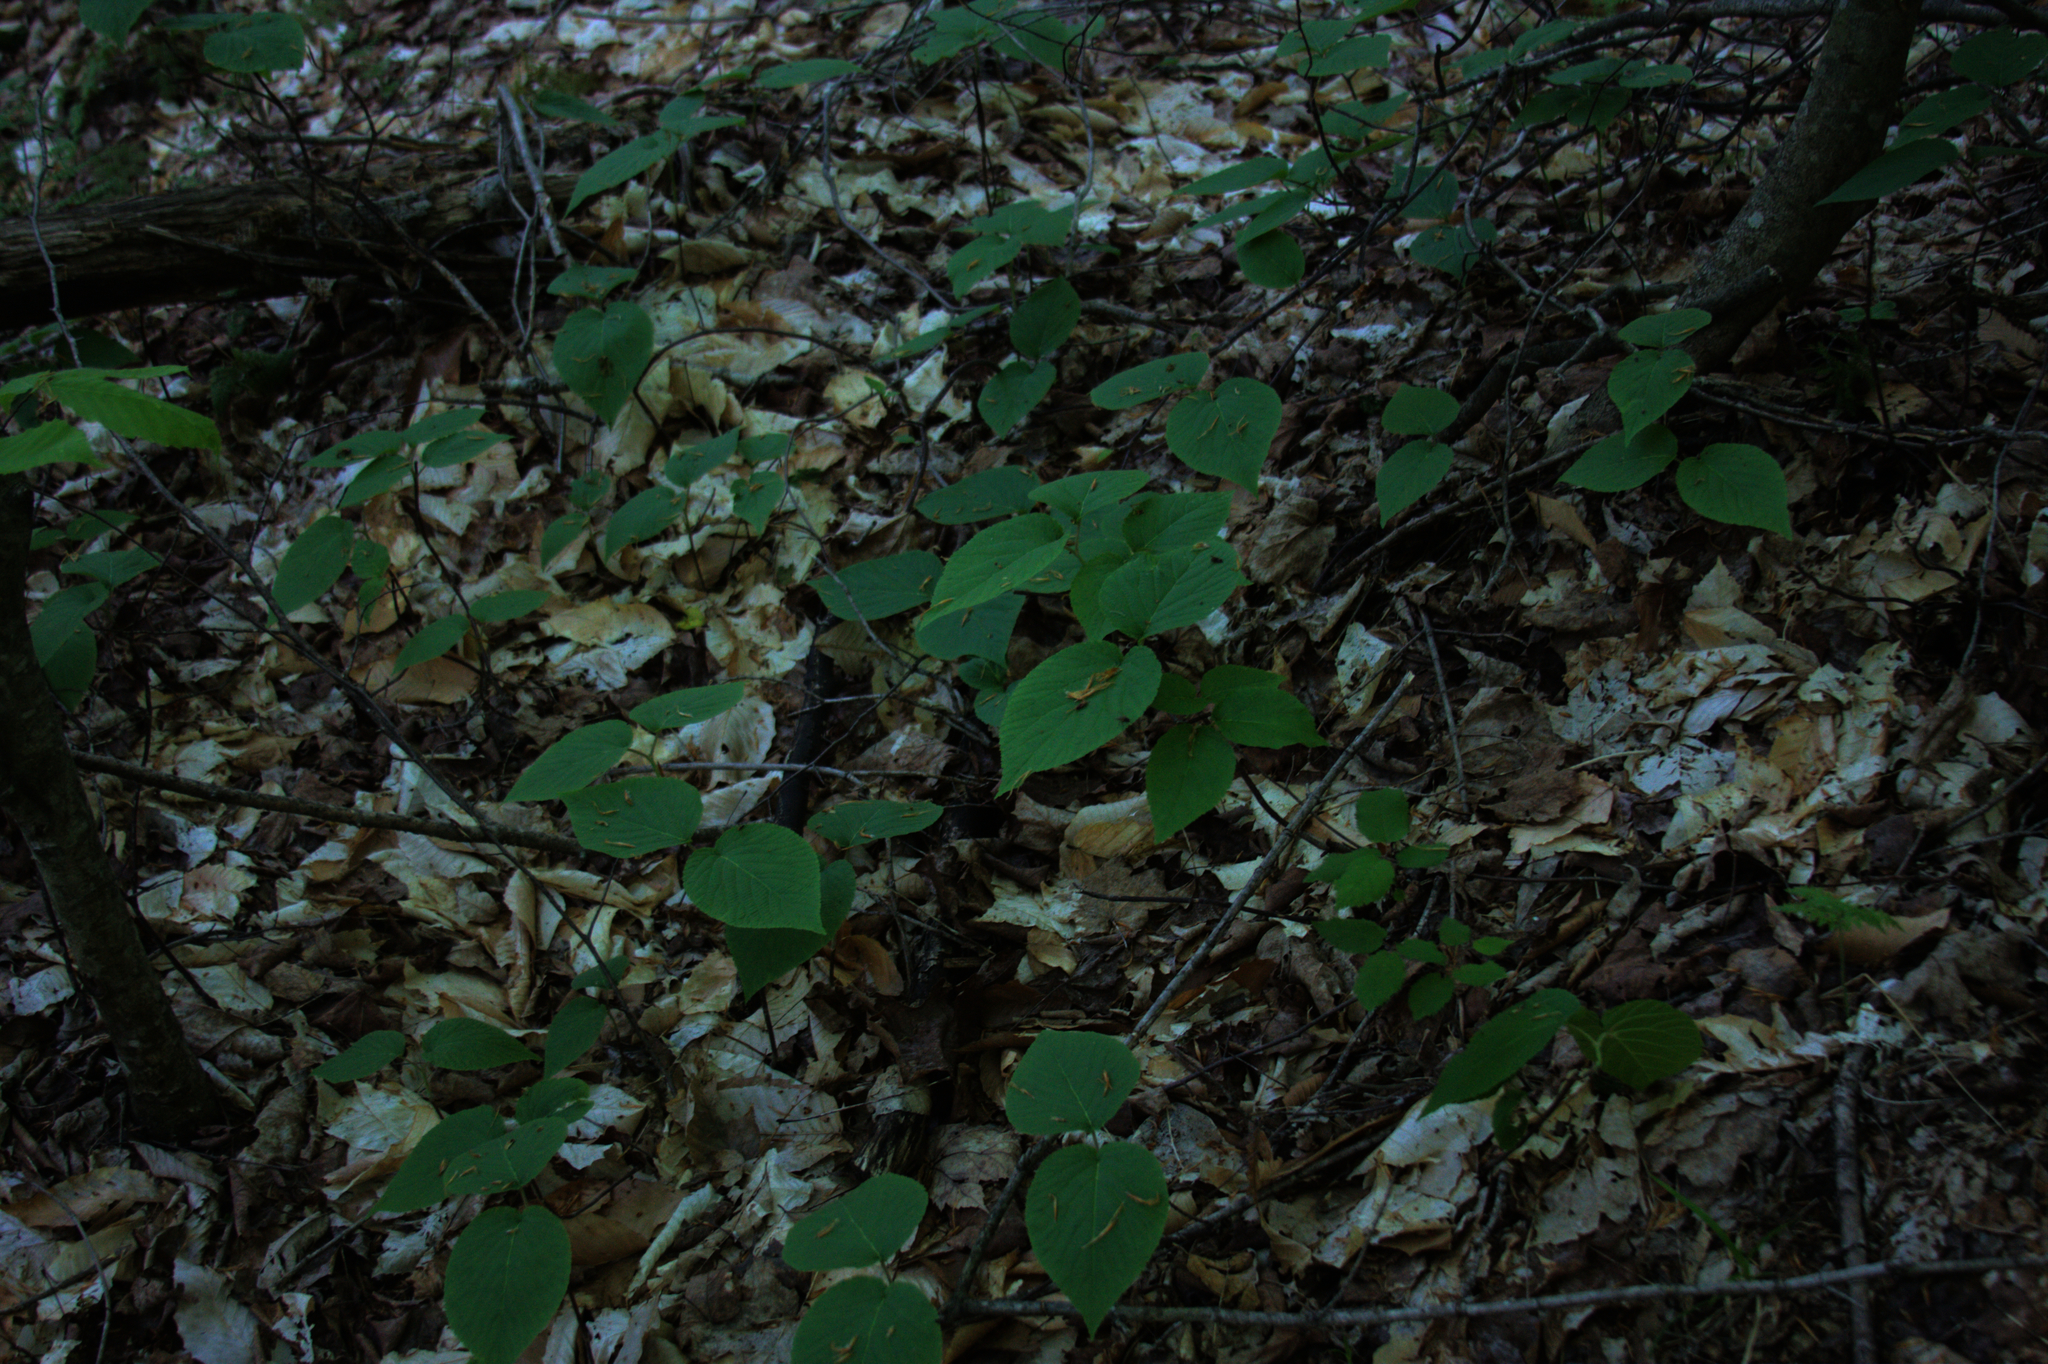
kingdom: Plantae
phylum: Tracheophyta
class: Magnoliopsida
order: Dipsacales
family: Viburnaceae
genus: Viburnum
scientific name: Viburnum lantanoides
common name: Hobblebush
